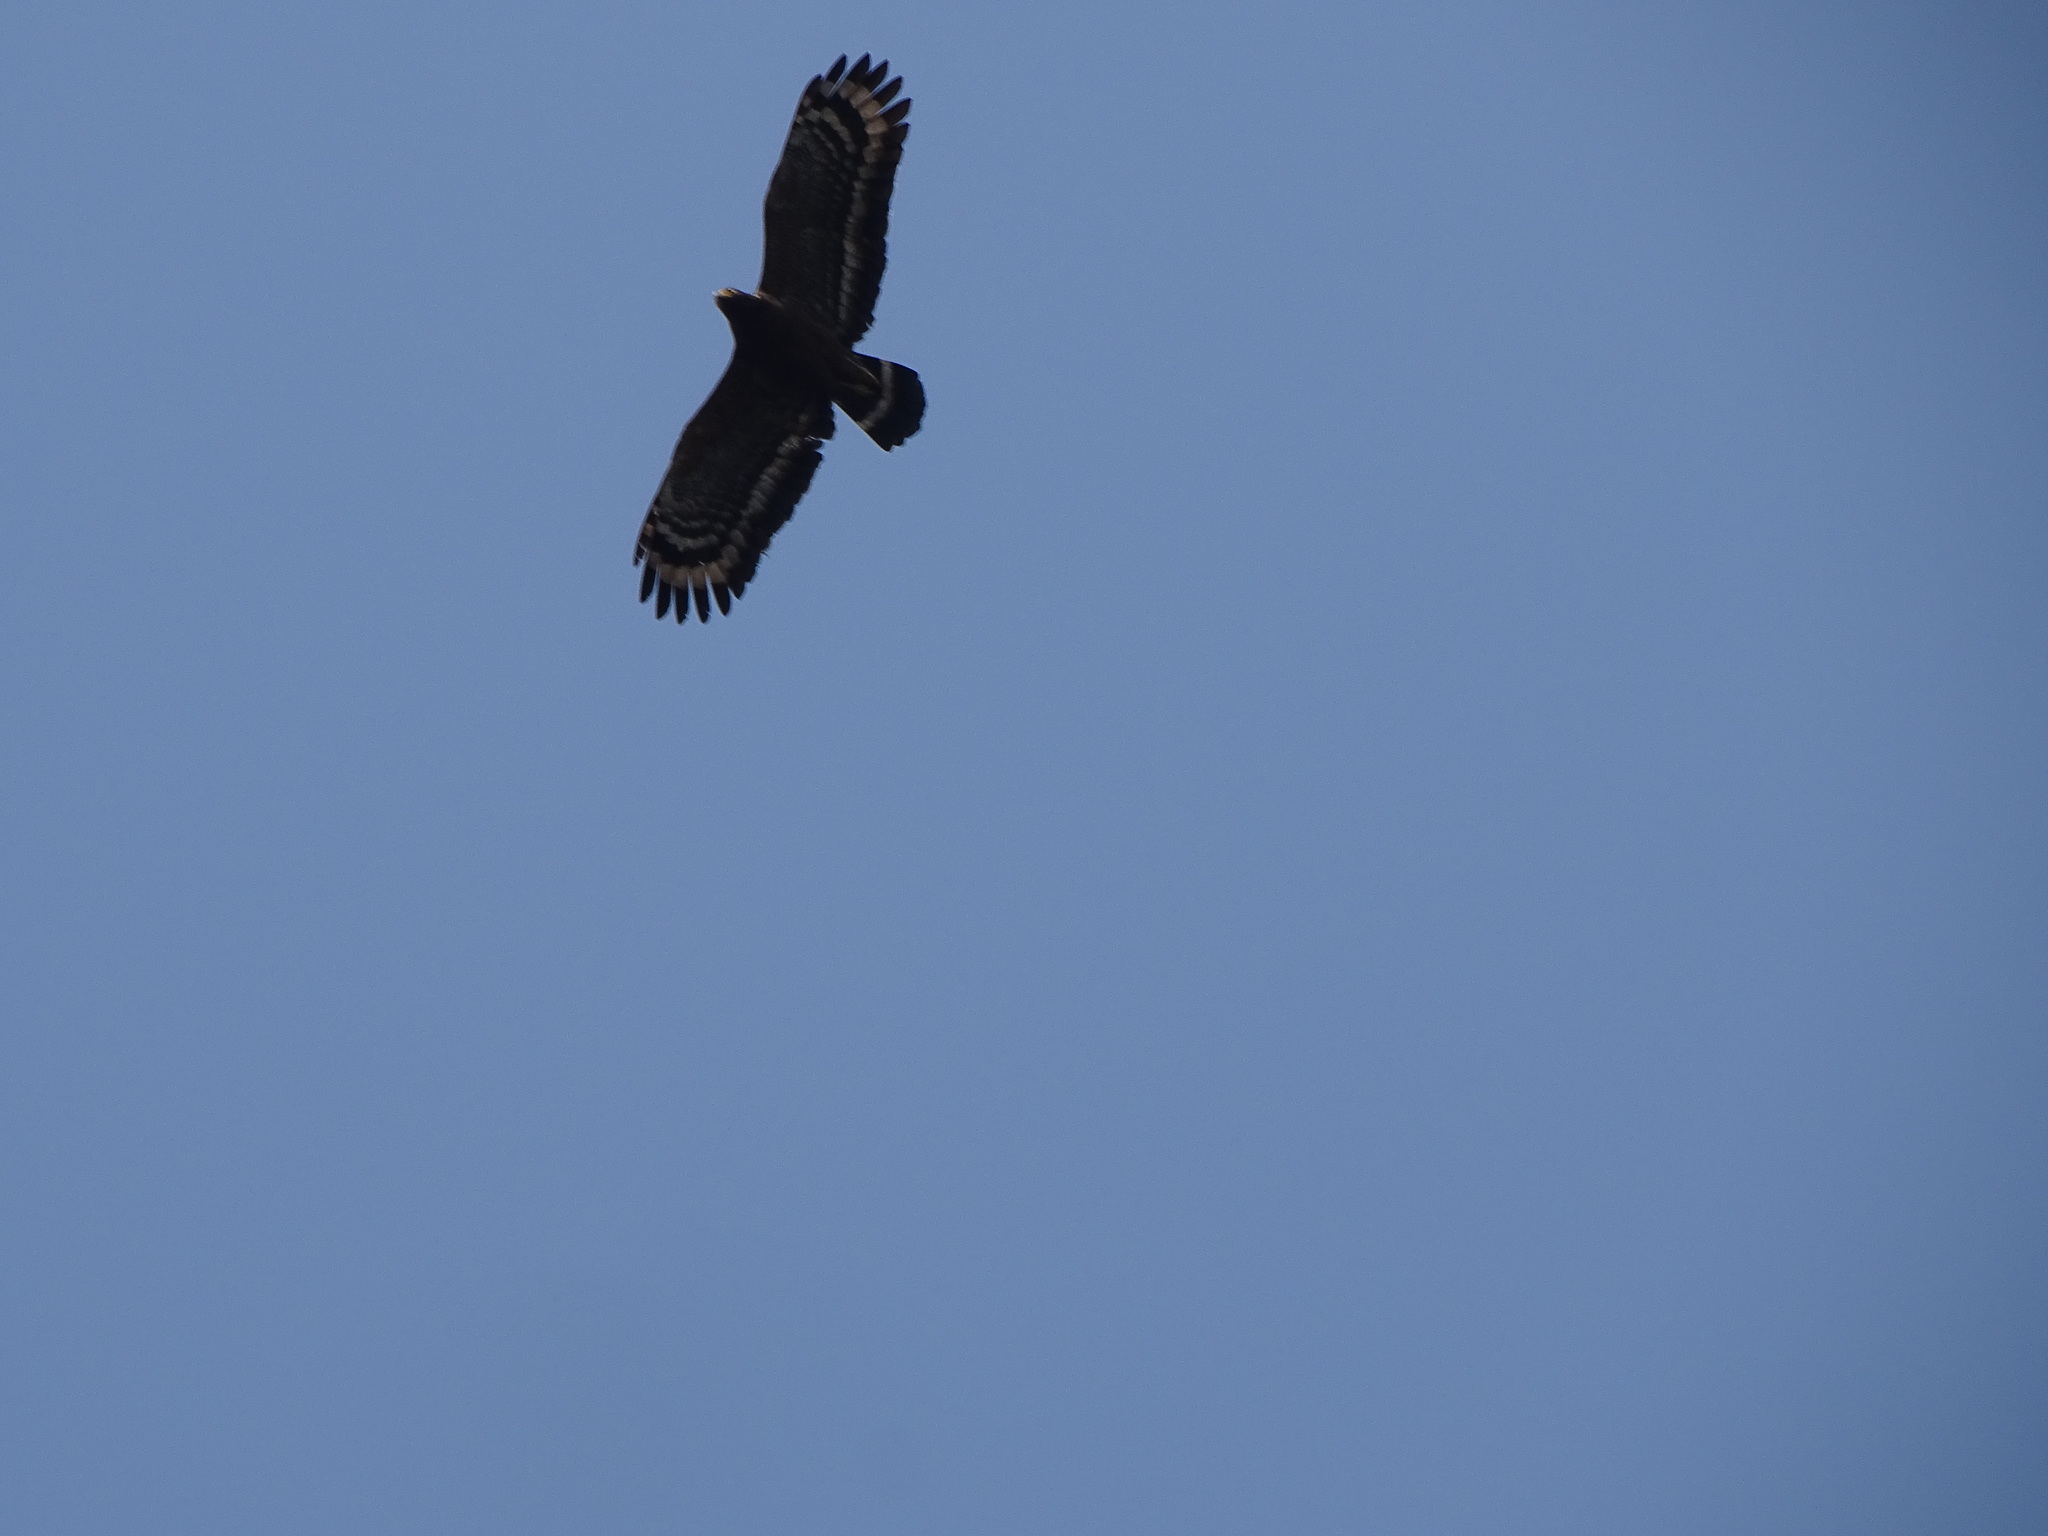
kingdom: Animalia
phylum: Chordata
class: Aves
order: Accipitriformes
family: Accipitridae
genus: Spilornis
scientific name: Spilornis cheela
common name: Crested serpent eagle
